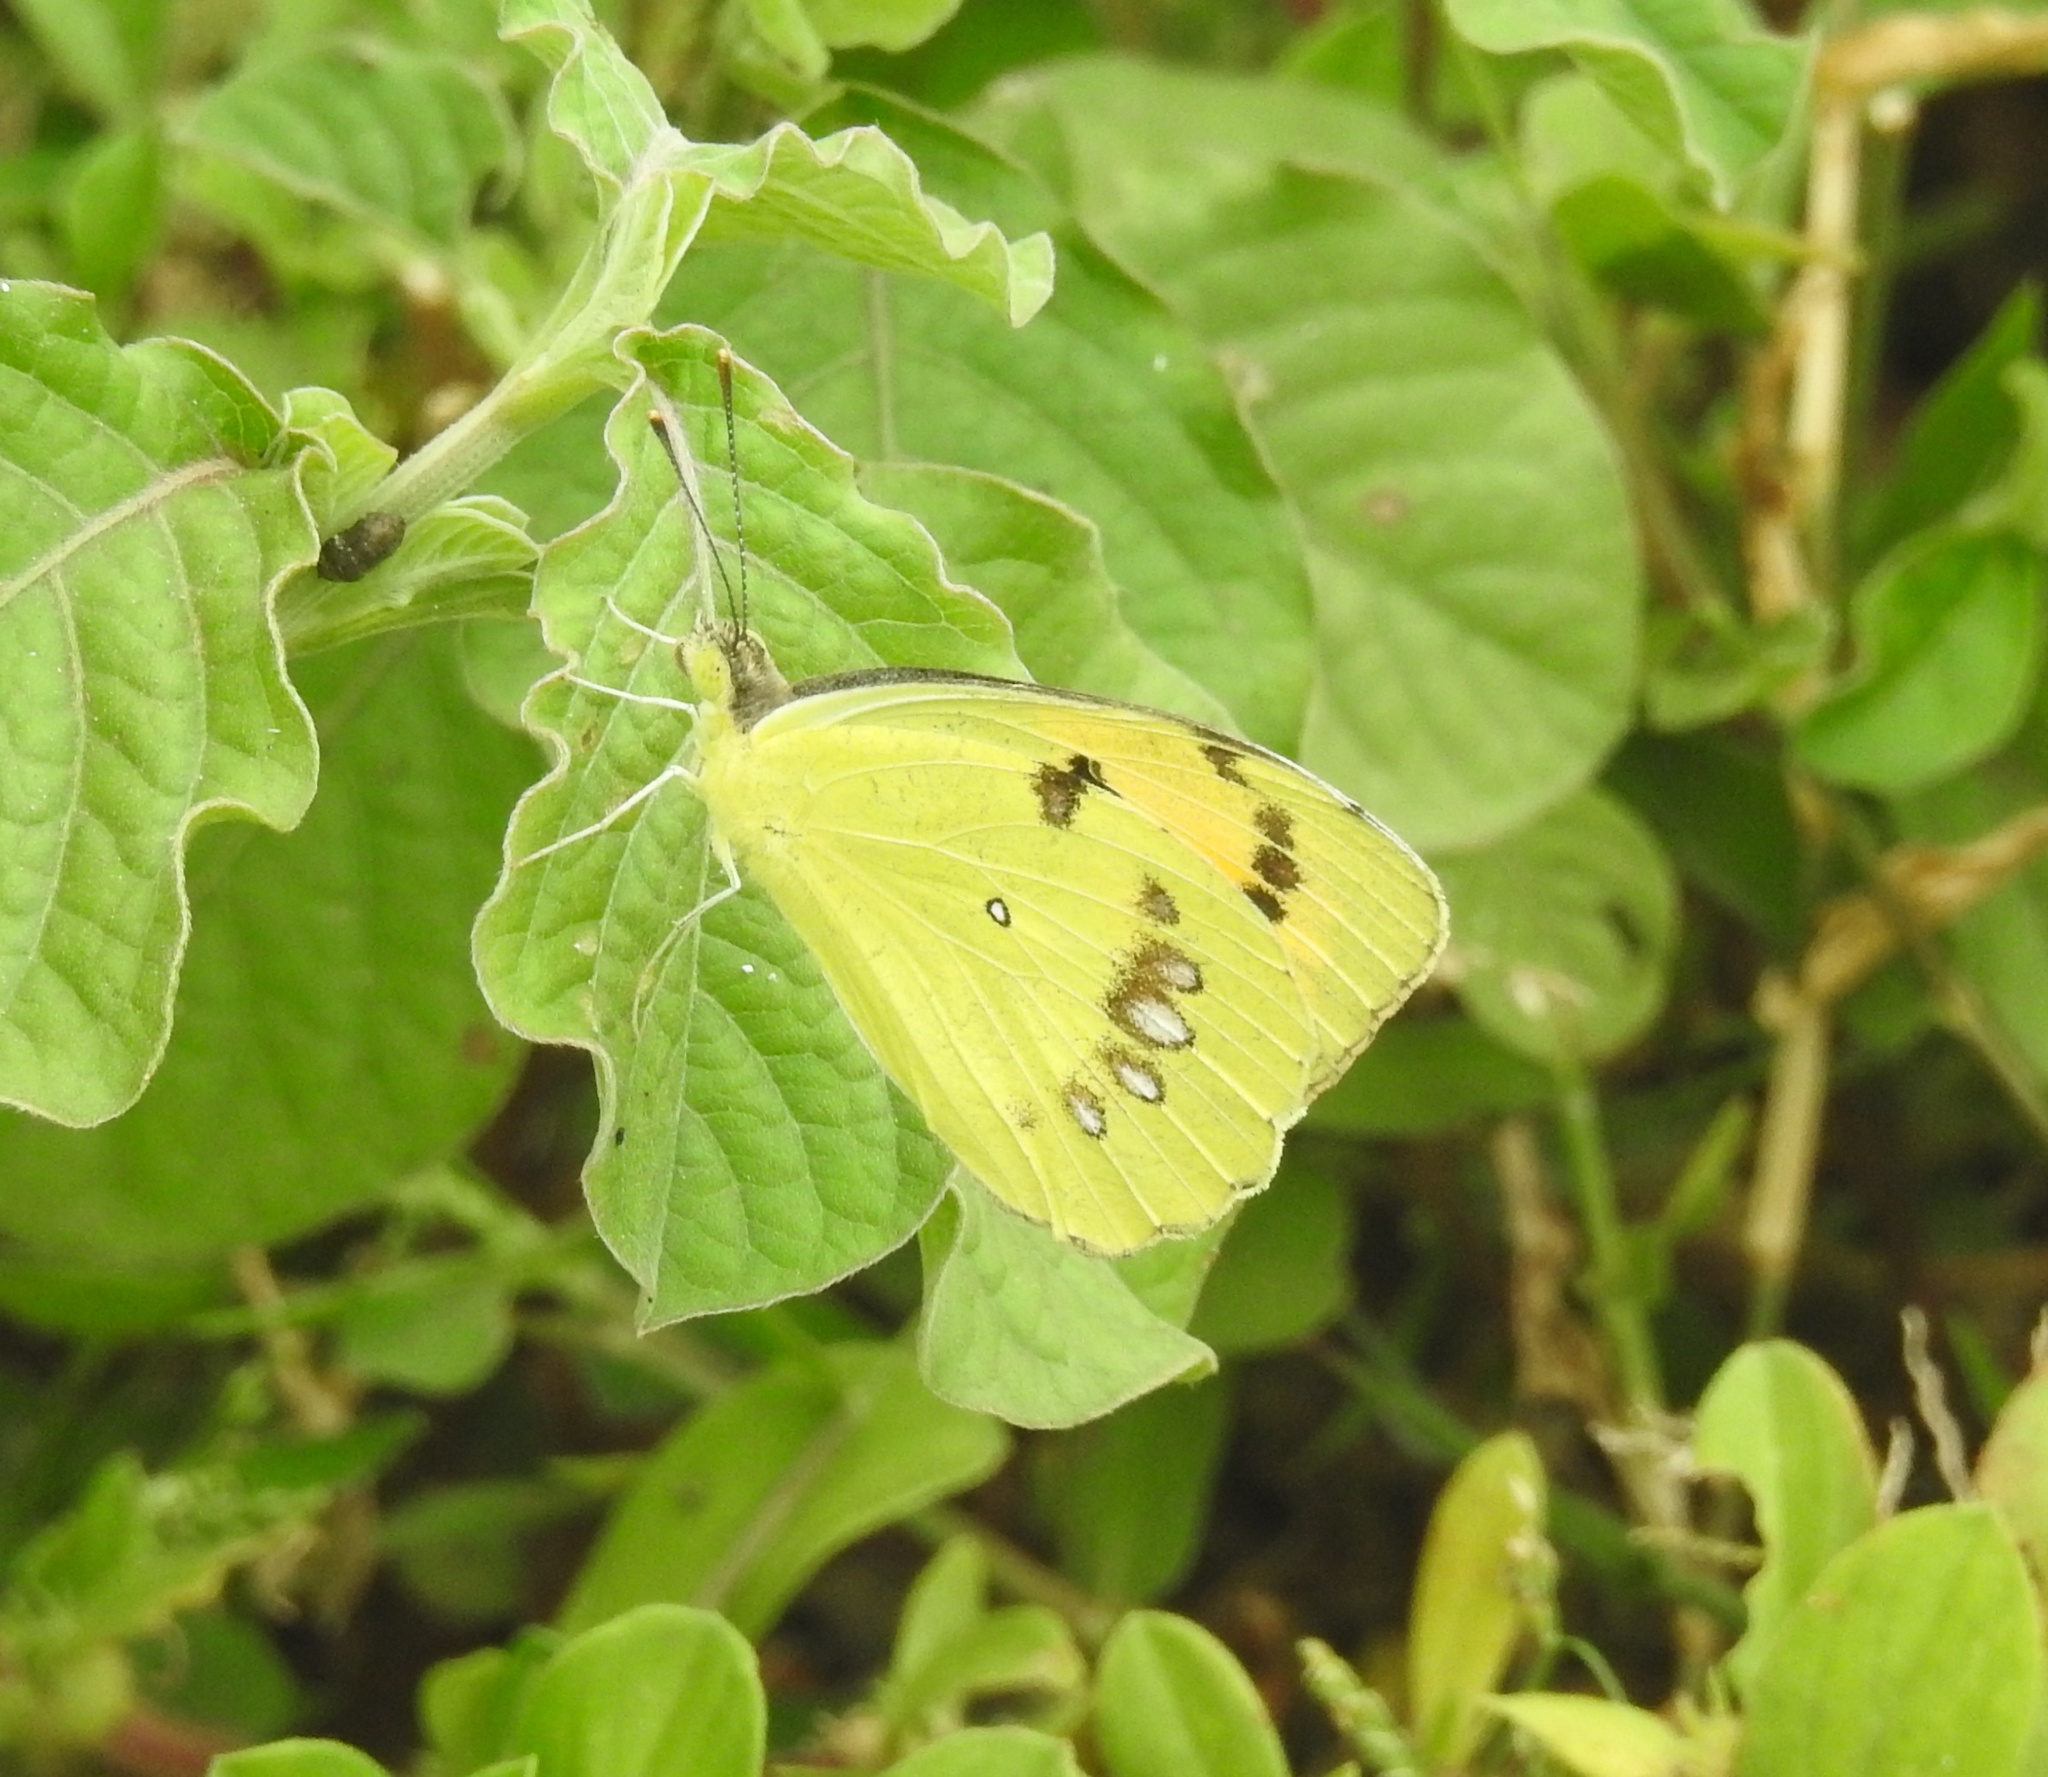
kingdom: Animalia
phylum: Arthropoda
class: Insecta
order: Lepidoptera
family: Pieridae
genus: Ixias
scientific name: Ixias marianne
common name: White orange tip
